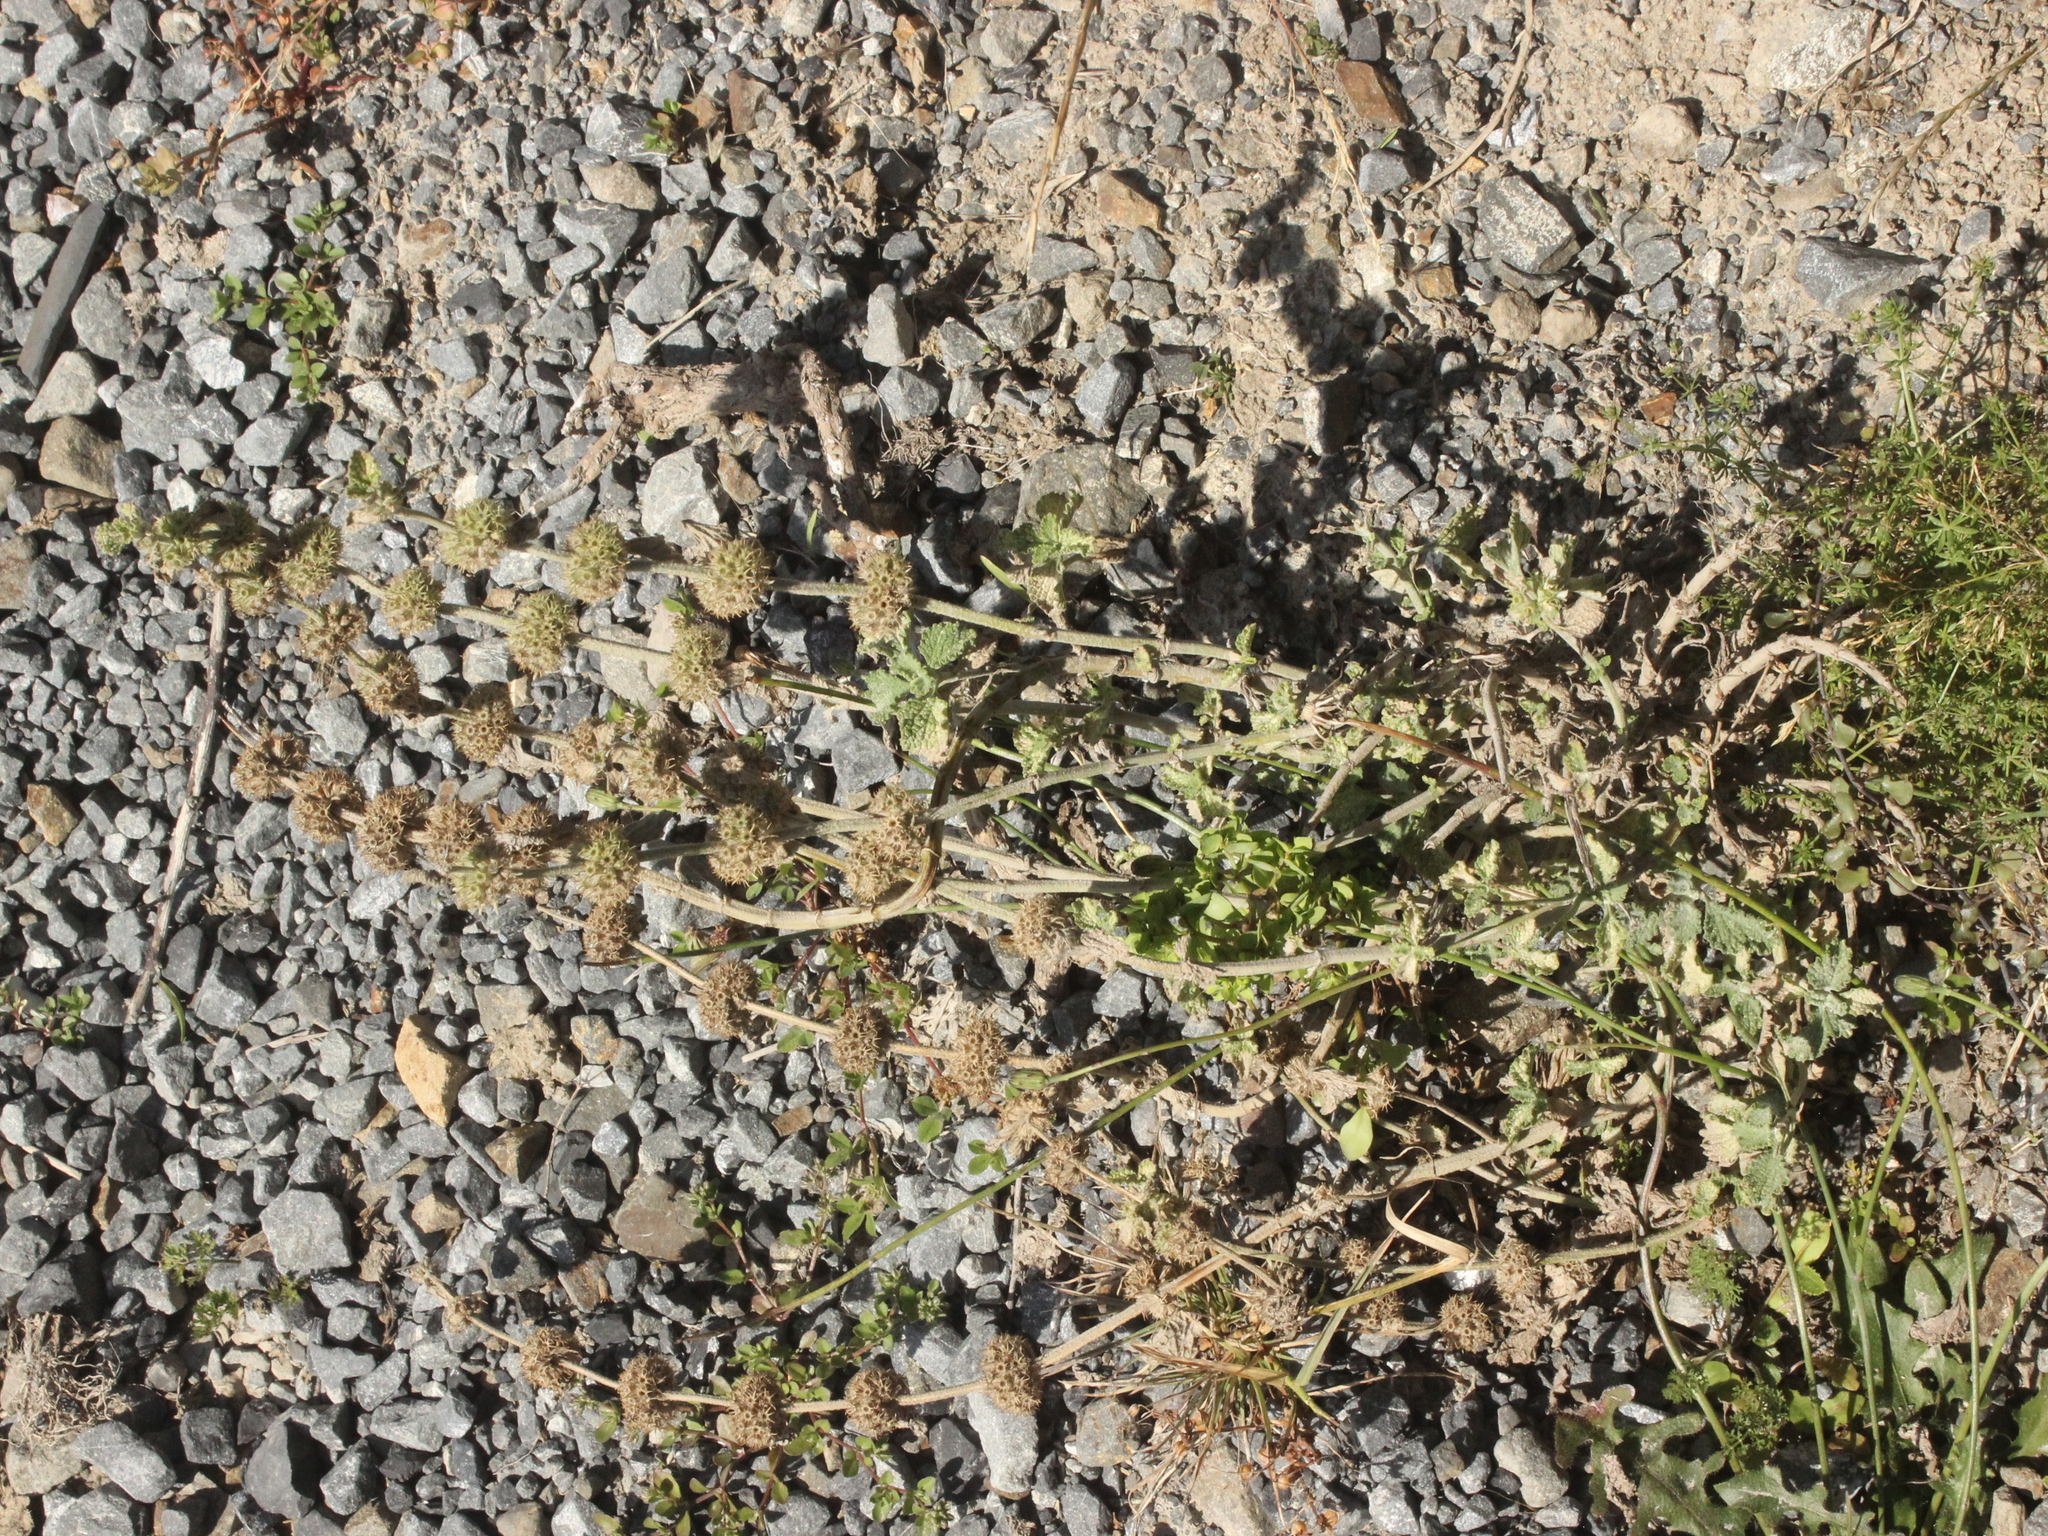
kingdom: Plantae
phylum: Tracheophyta
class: Magnoliopsida
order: Lamiales
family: Lamiaceae
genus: Marrubium
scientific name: Marrubium vulgare
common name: Horehound
